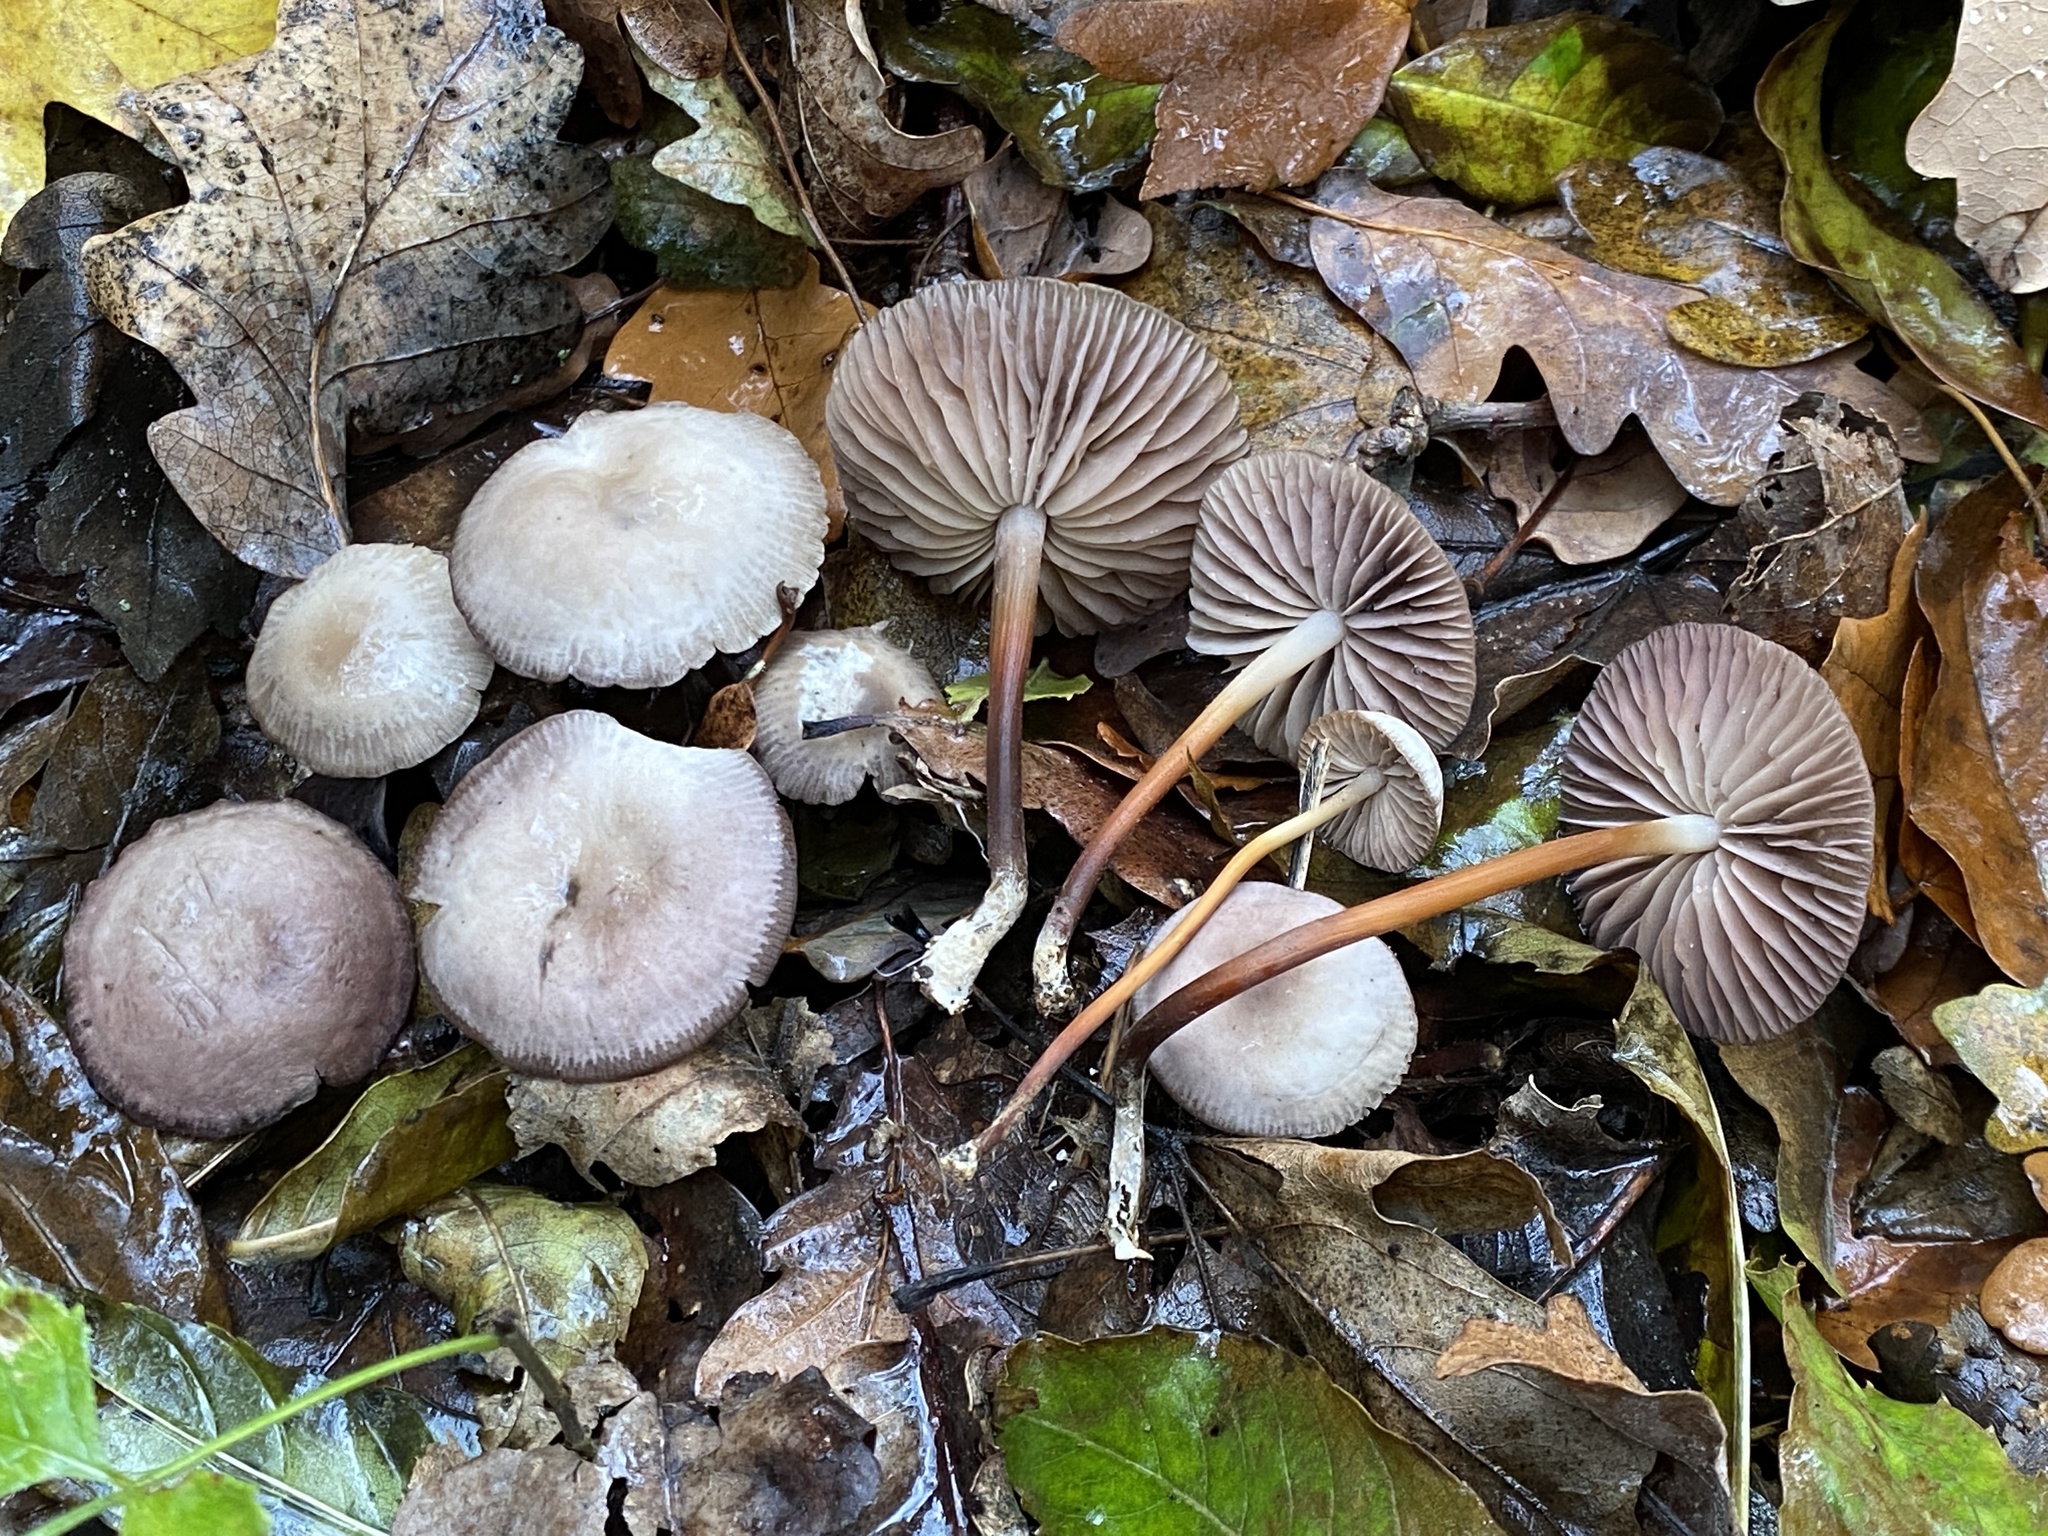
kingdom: Fungi
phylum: Basidiomycota
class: Agaricomycetes
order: Agaricales
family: Marasmiaceae
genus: Marasmius
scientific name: Marasmius wynneae
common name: Pearly parachute
